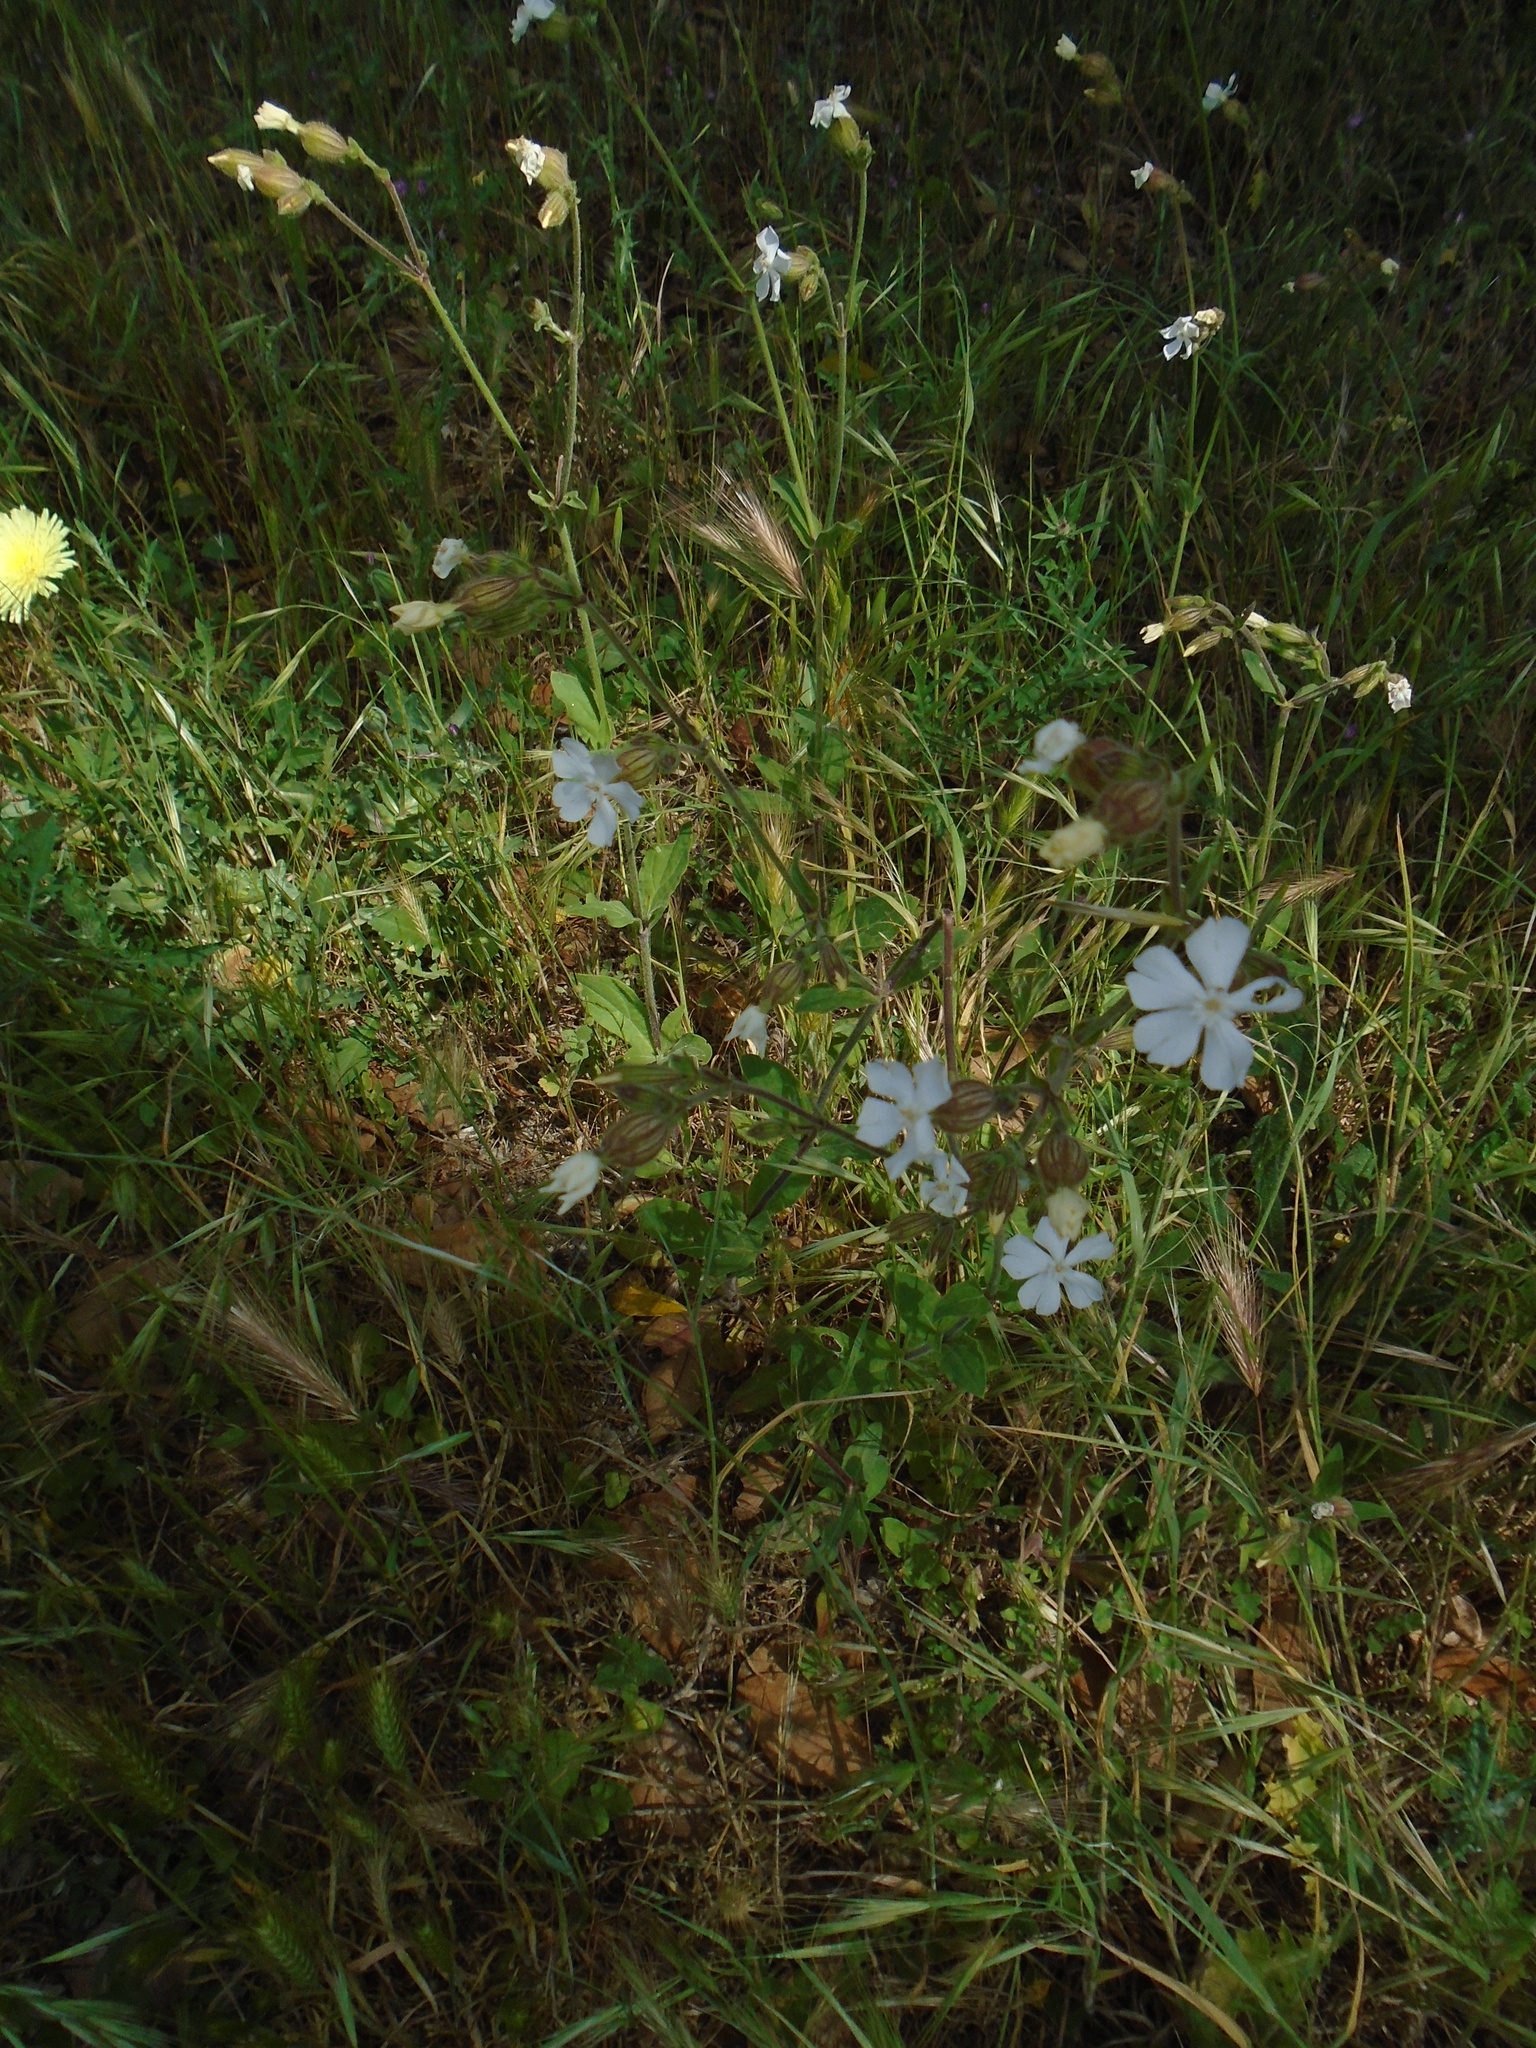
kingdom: Plantae
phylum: Tracheophyta
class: Magnoliopsida
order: Caryophyllales
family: Caryophyllaceae
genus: Silene
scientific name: Silene latifolia
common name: White campion
